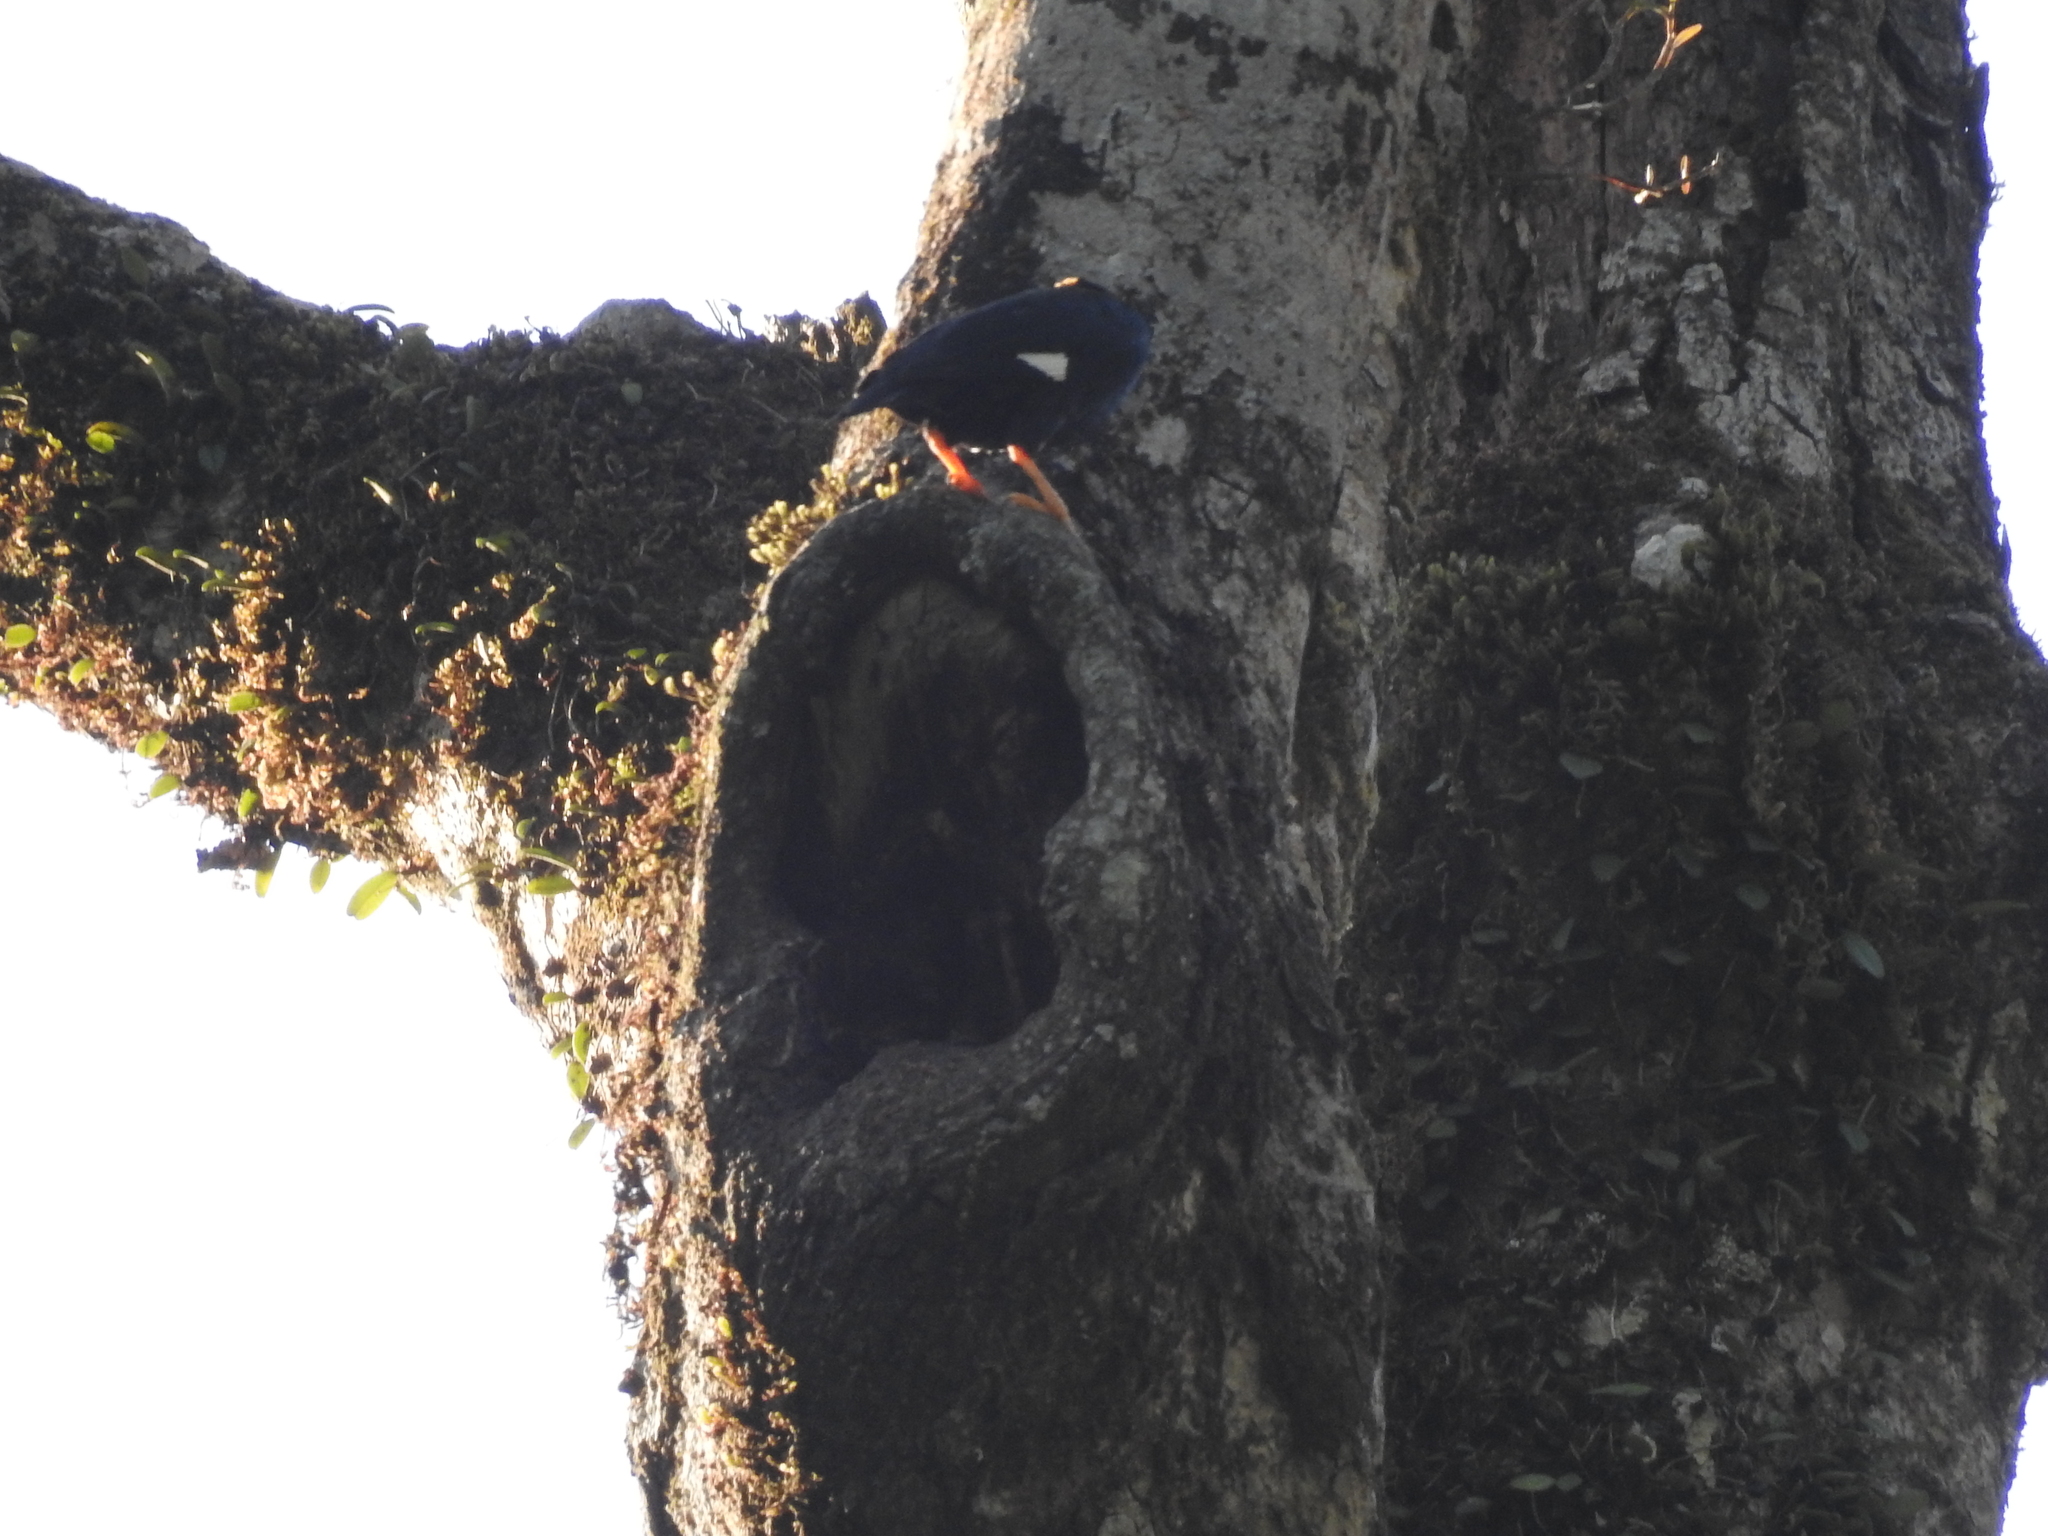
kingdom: Animalia
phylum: Chordata
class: Aves
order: Passeriformes
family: Sturnidae
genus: Gracula
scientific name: Gracula indica
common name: Southern hill myna
